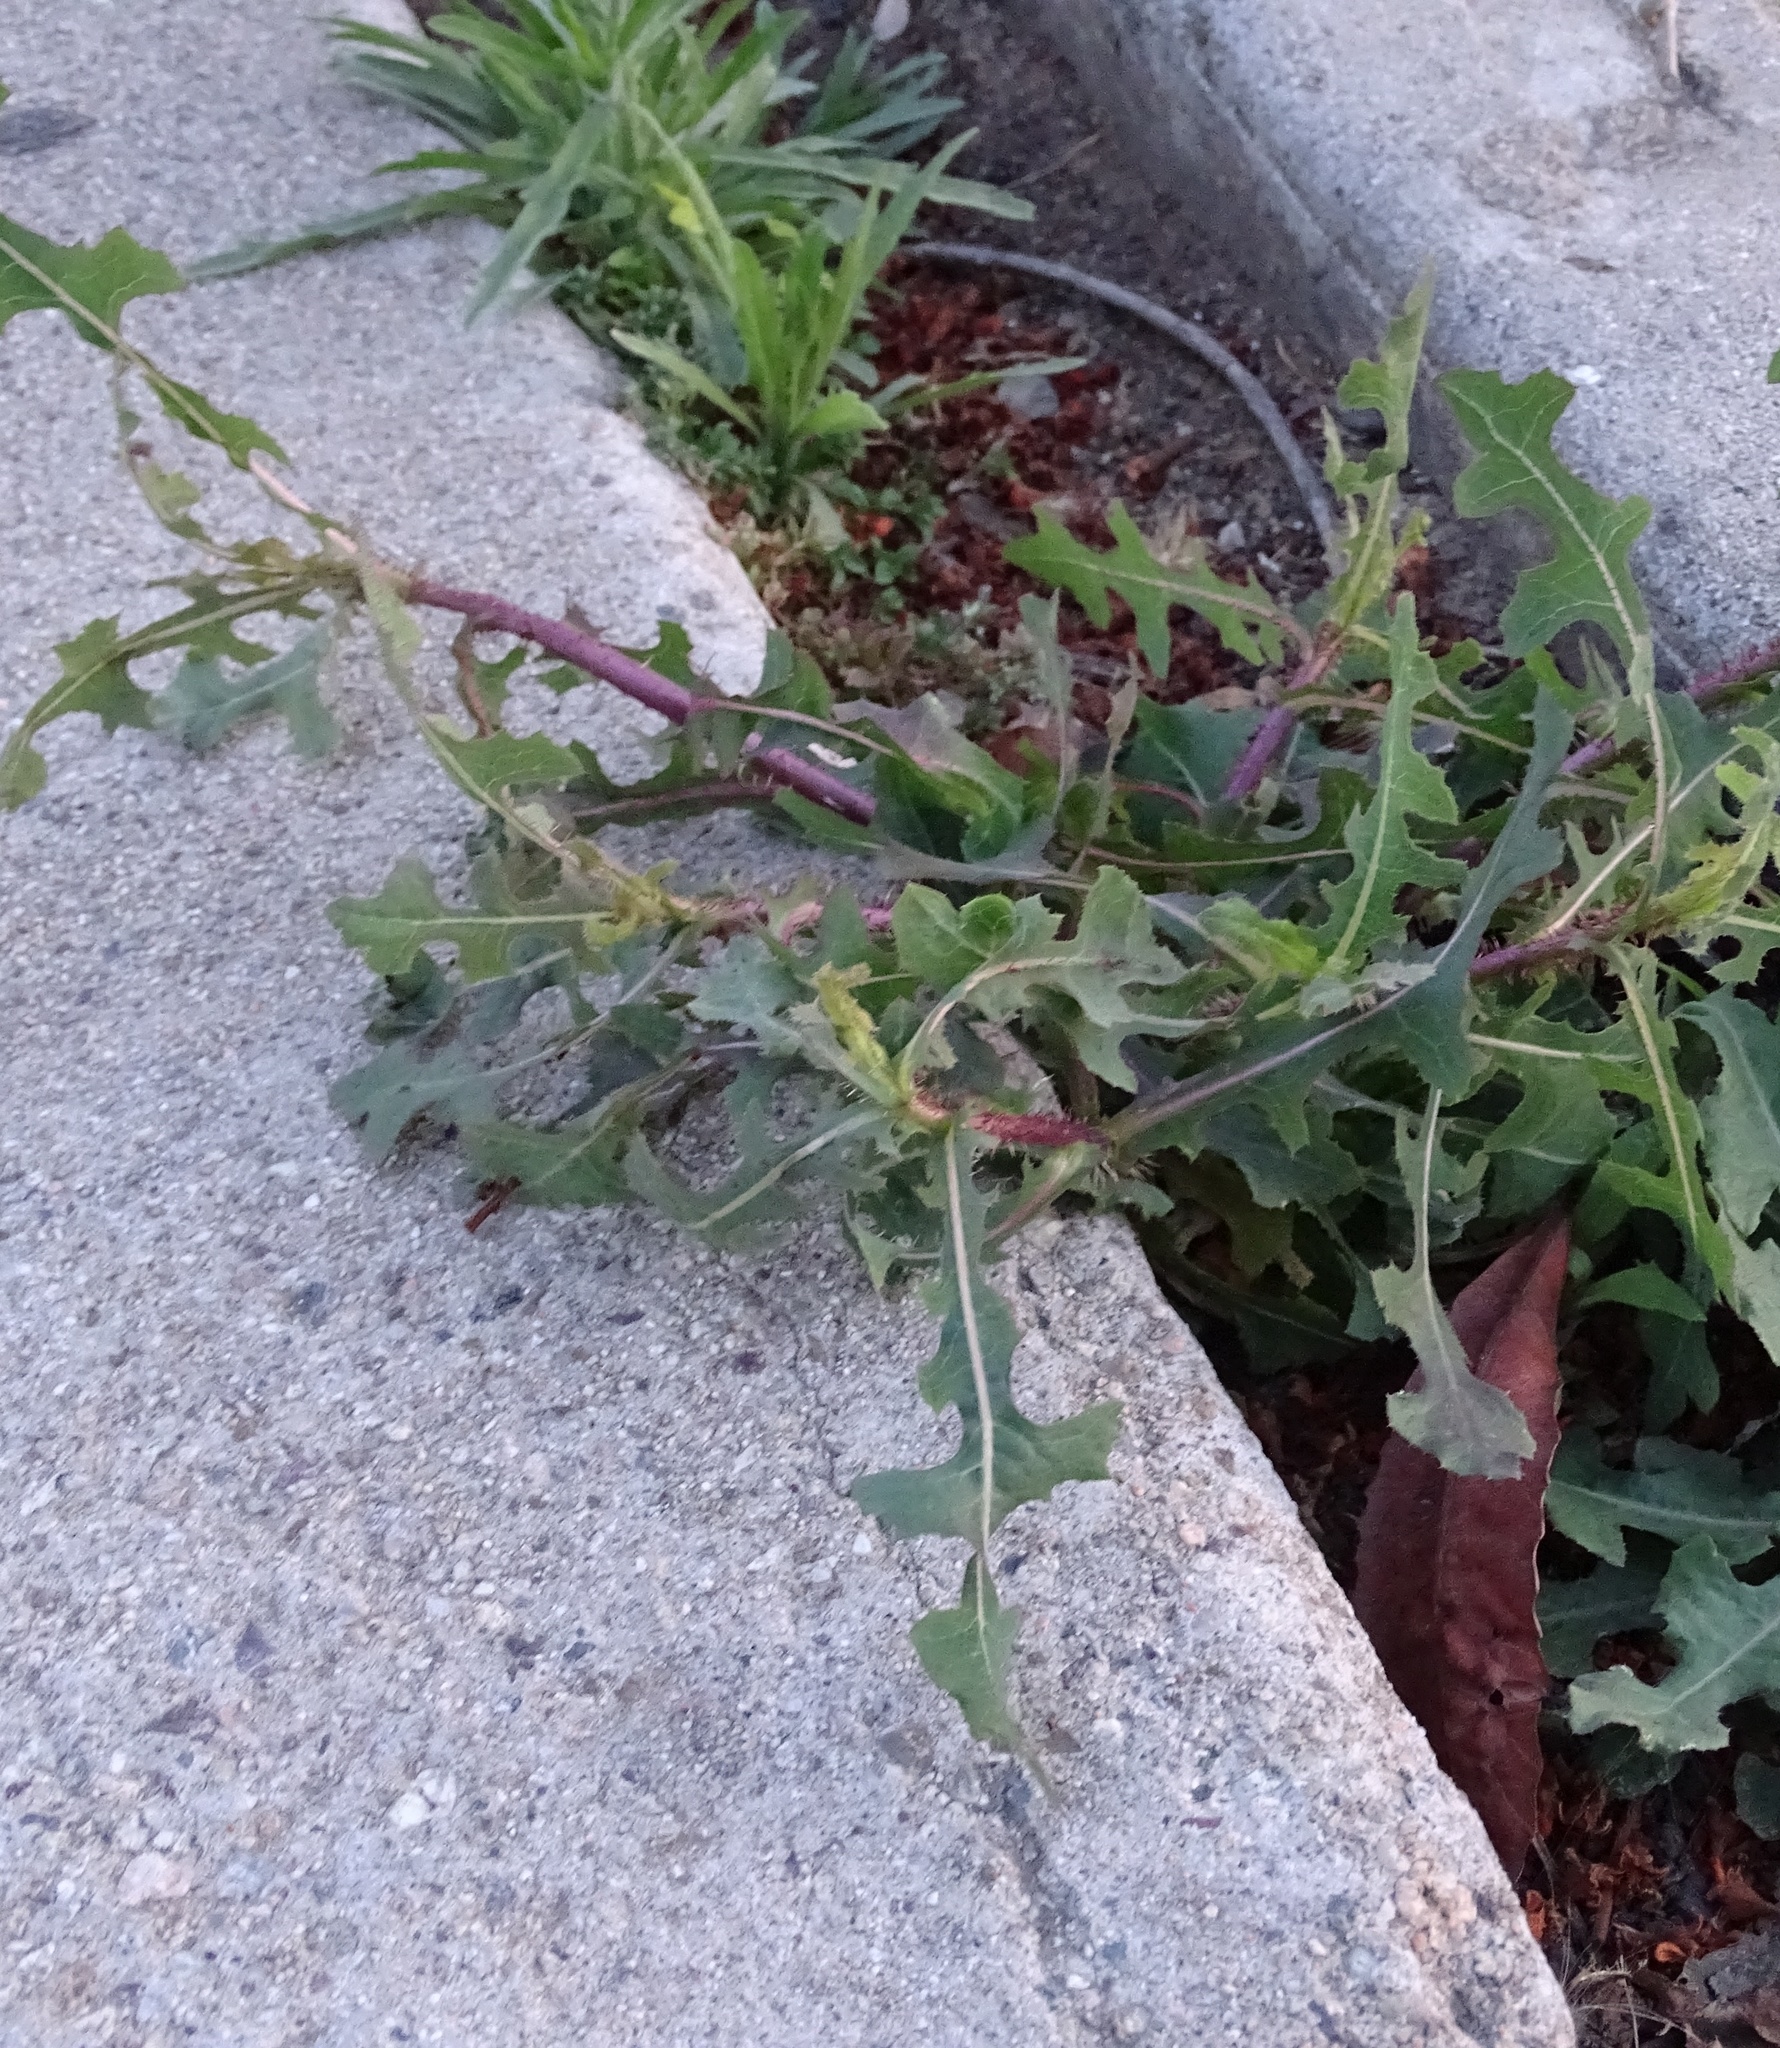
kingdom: Plantae
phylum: Tracheophyta
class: Magnoliopsida
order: Asterales
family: Asteraceae
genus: Lactuca
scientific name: Lactuca serriola
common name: Prickly lettuce
